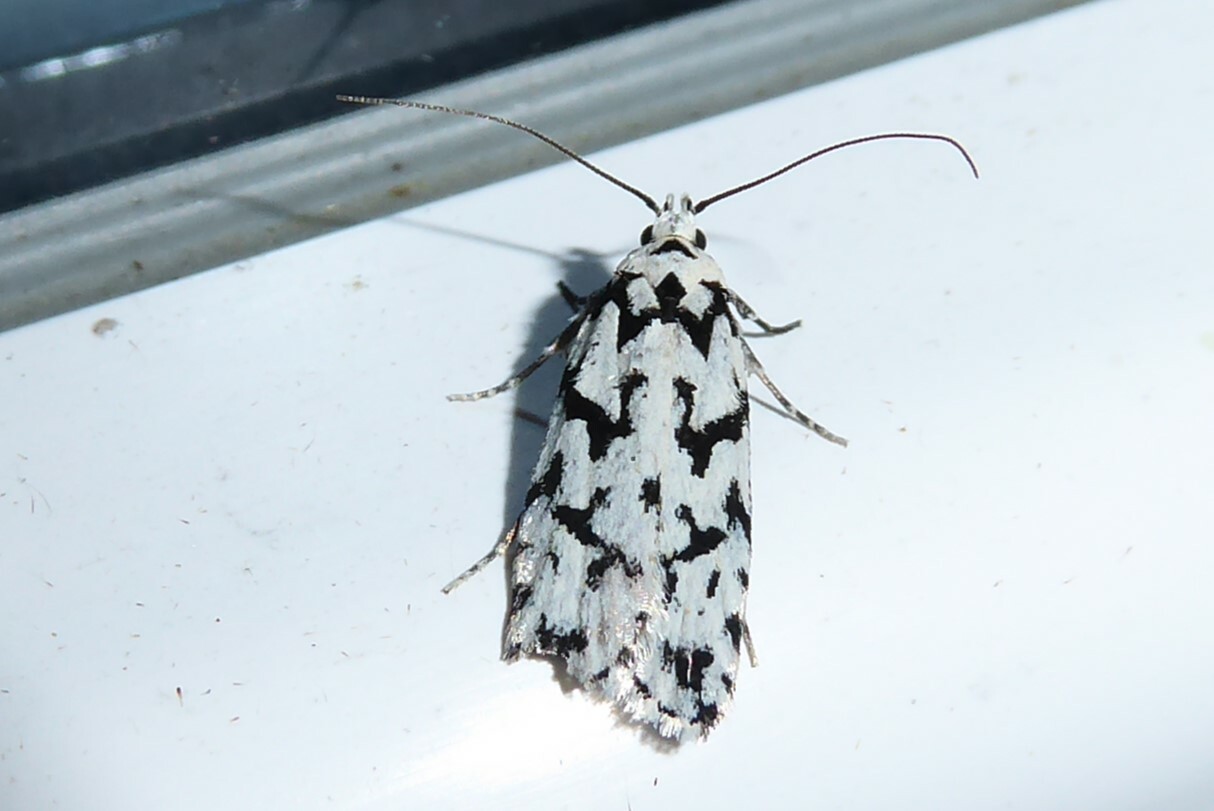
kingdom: Animalia
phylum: Arthropoda
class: Insecta
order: Lepidoptera
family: Oecophoridae
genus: Izatha
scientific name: Izatha katadiktya
